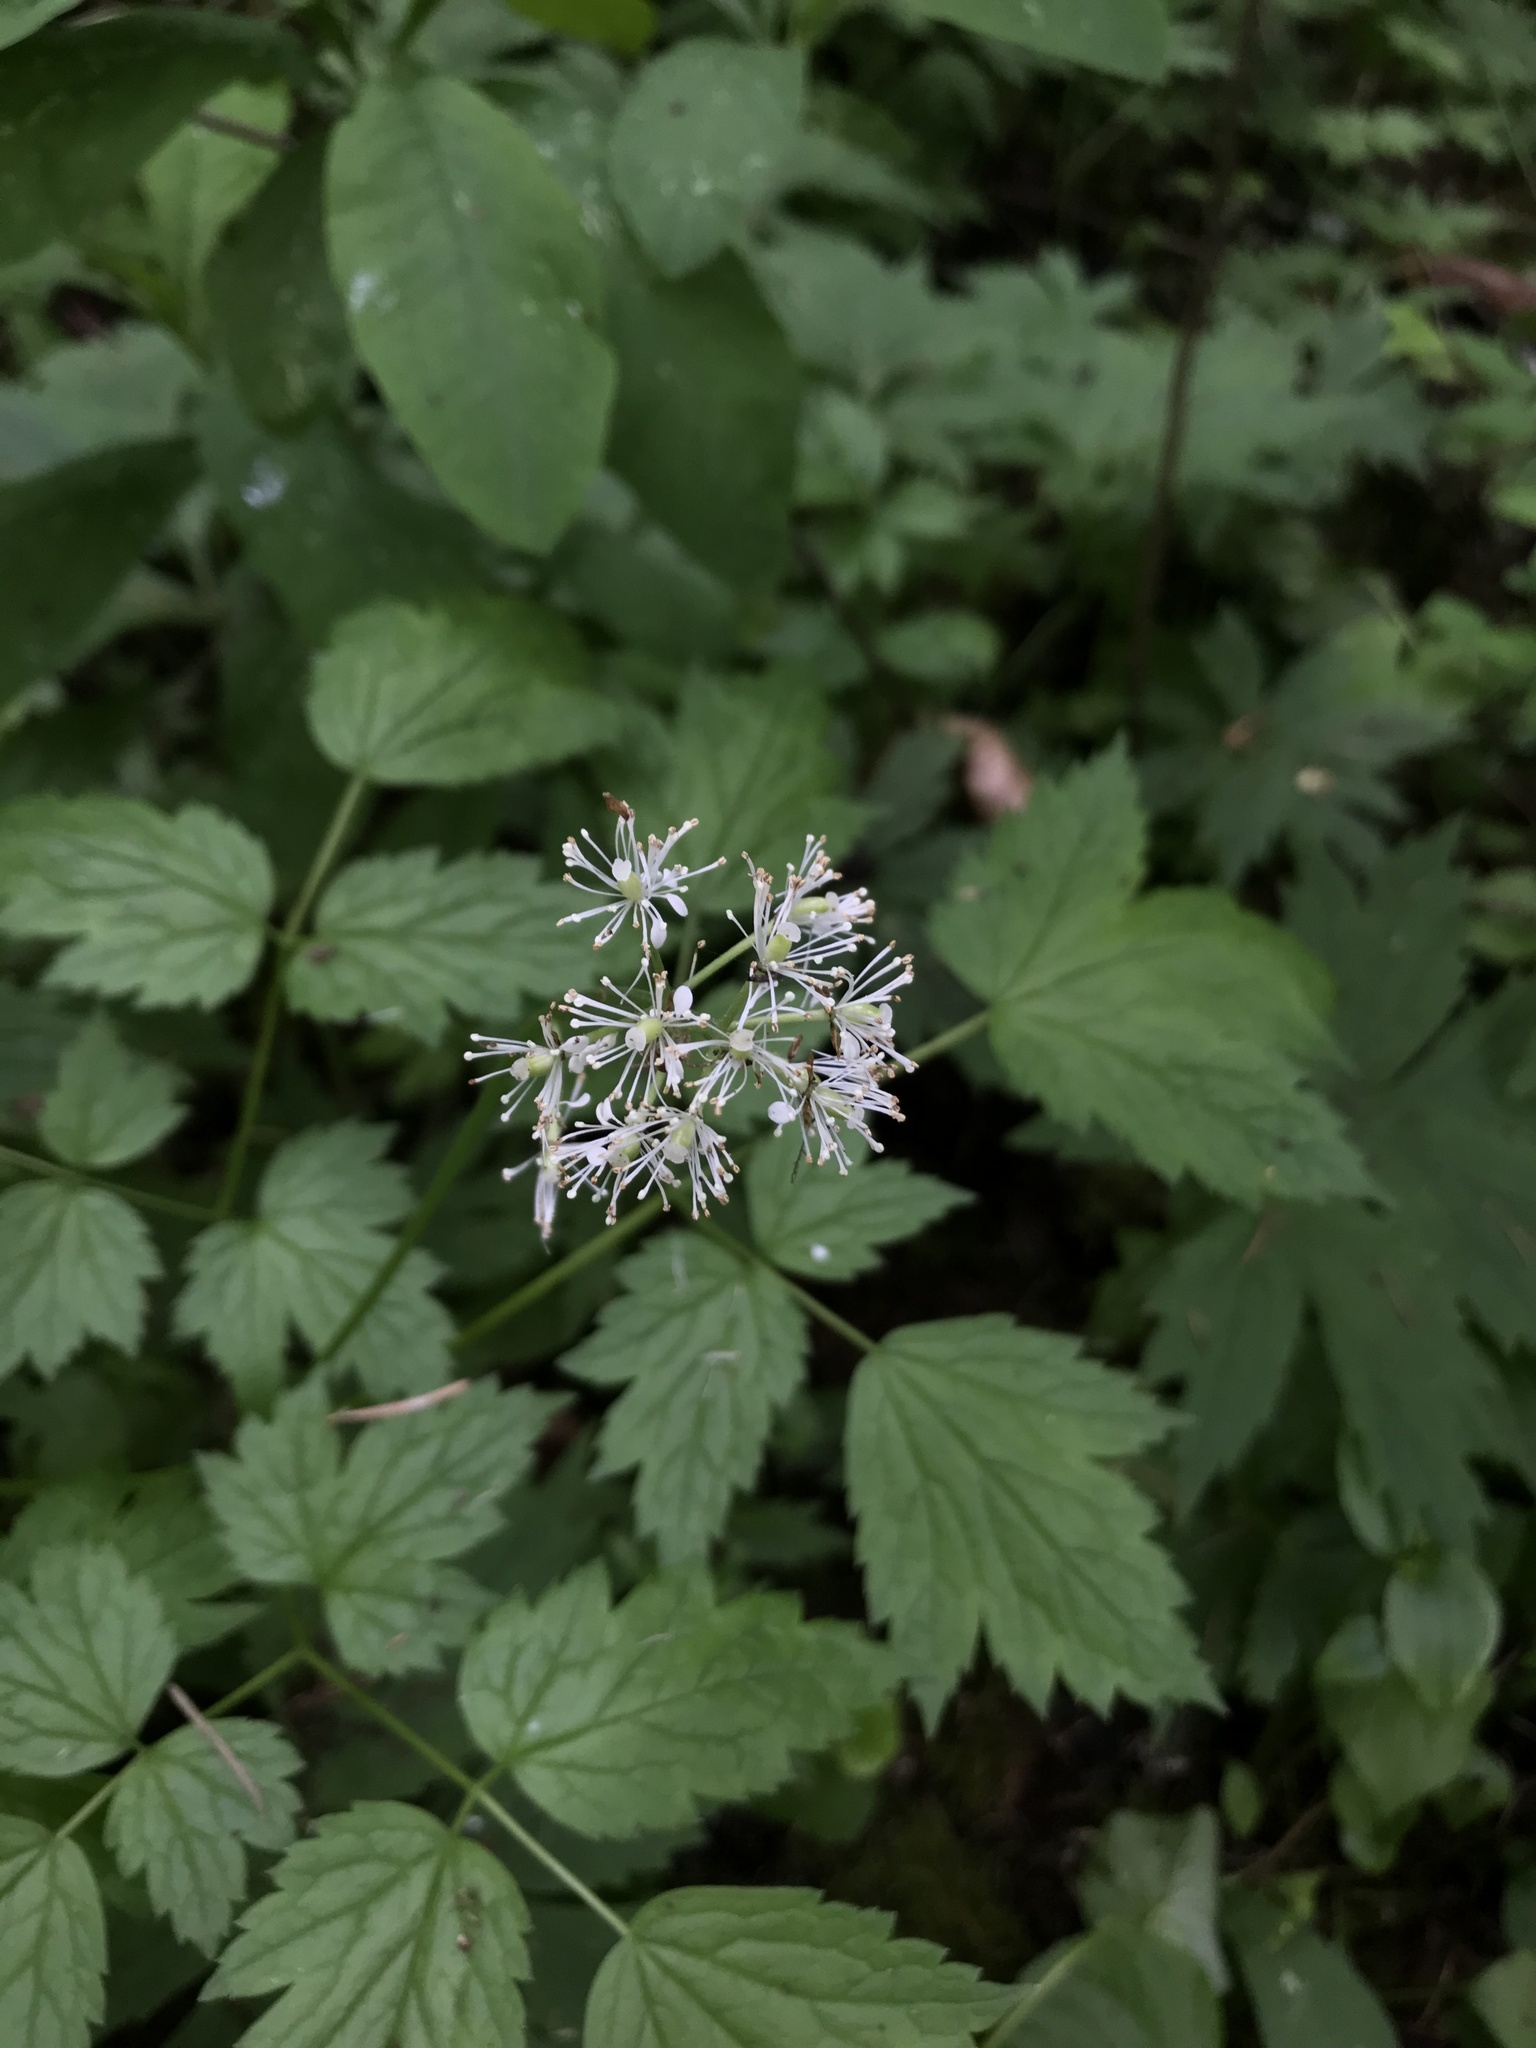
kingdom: Plantae
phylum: Tracheophyta
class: Magnoliopsida
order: Ranunculales
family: Ranunculaceae
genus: Actaea
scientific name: Actaea rubra
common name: Red baneberry
